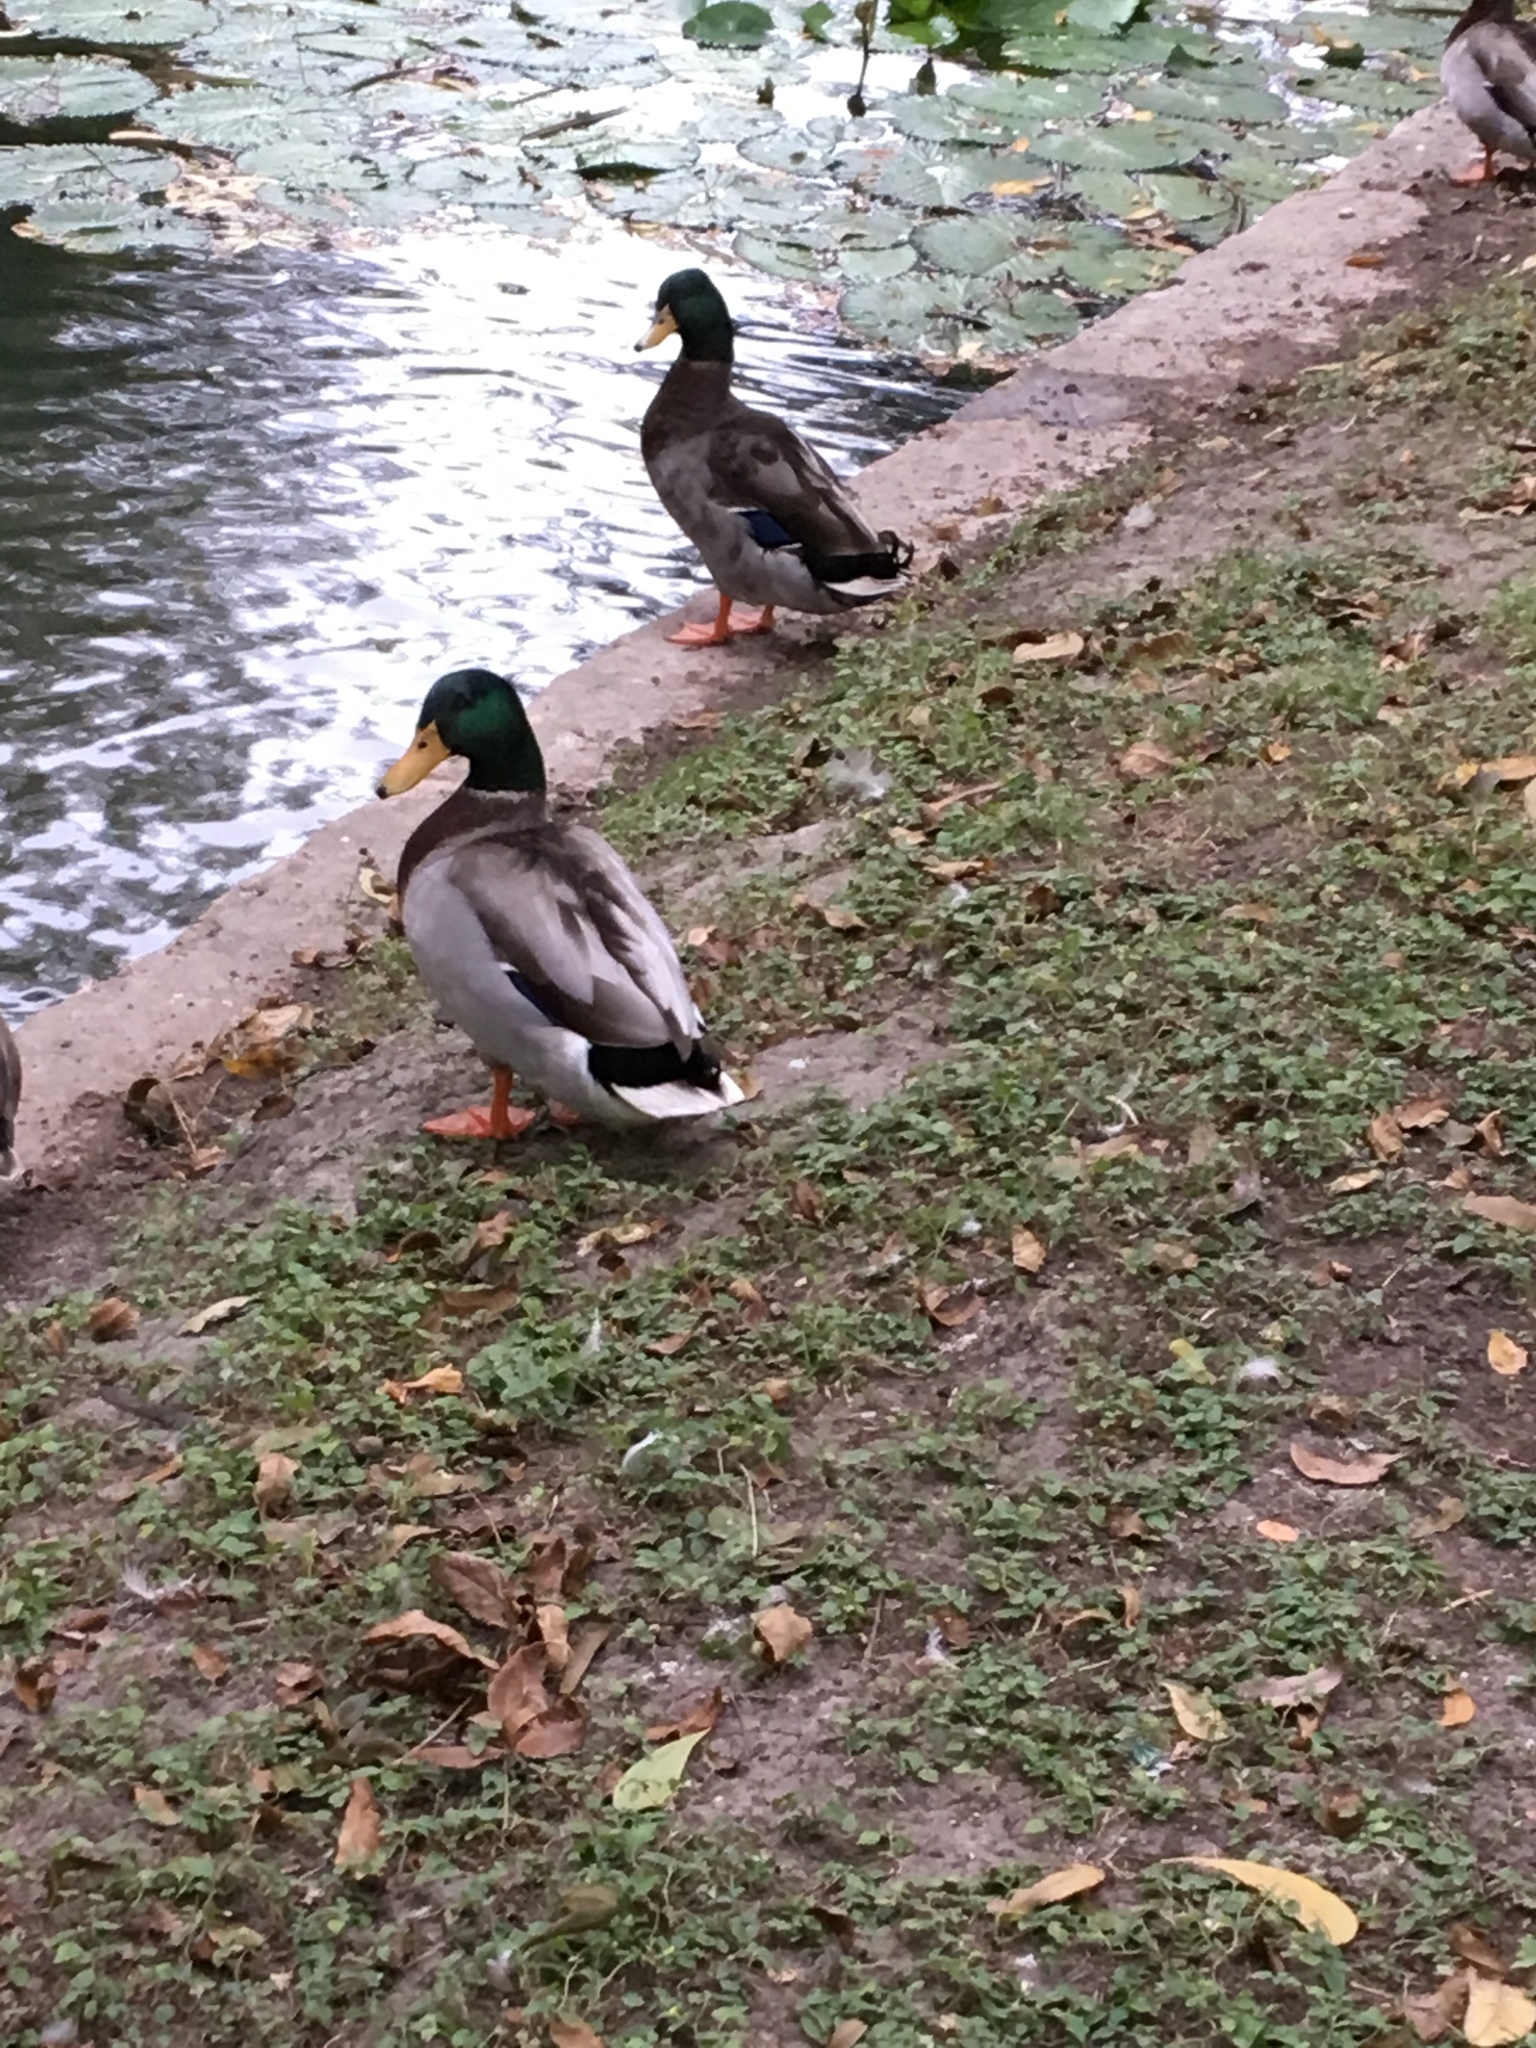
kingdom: Animalia
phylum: Chordata
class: Aves
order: Anseriformes
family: Anatidae
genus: Anas
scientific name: Anas platyrhynchos
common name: Mallard
